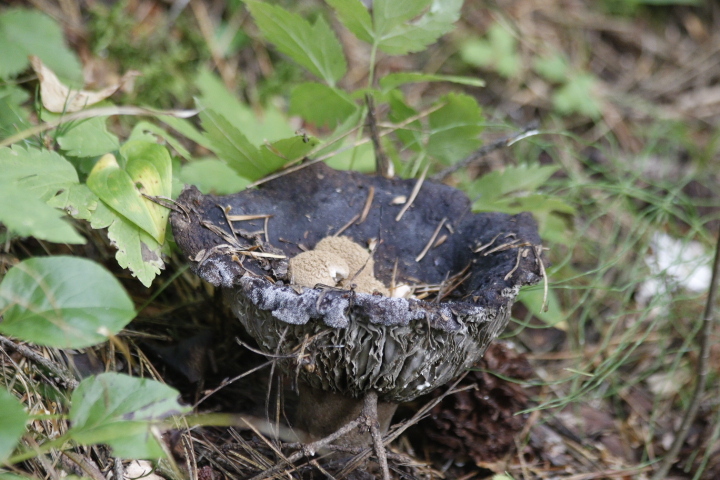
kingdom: Fungi
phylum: Basidiomycota
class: Agaricomycetes
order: Agaricales
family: Lyophyllaceae
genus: Asterophora
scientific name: Asterophora lycoperdoides
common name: Pick-a-back toadstool
